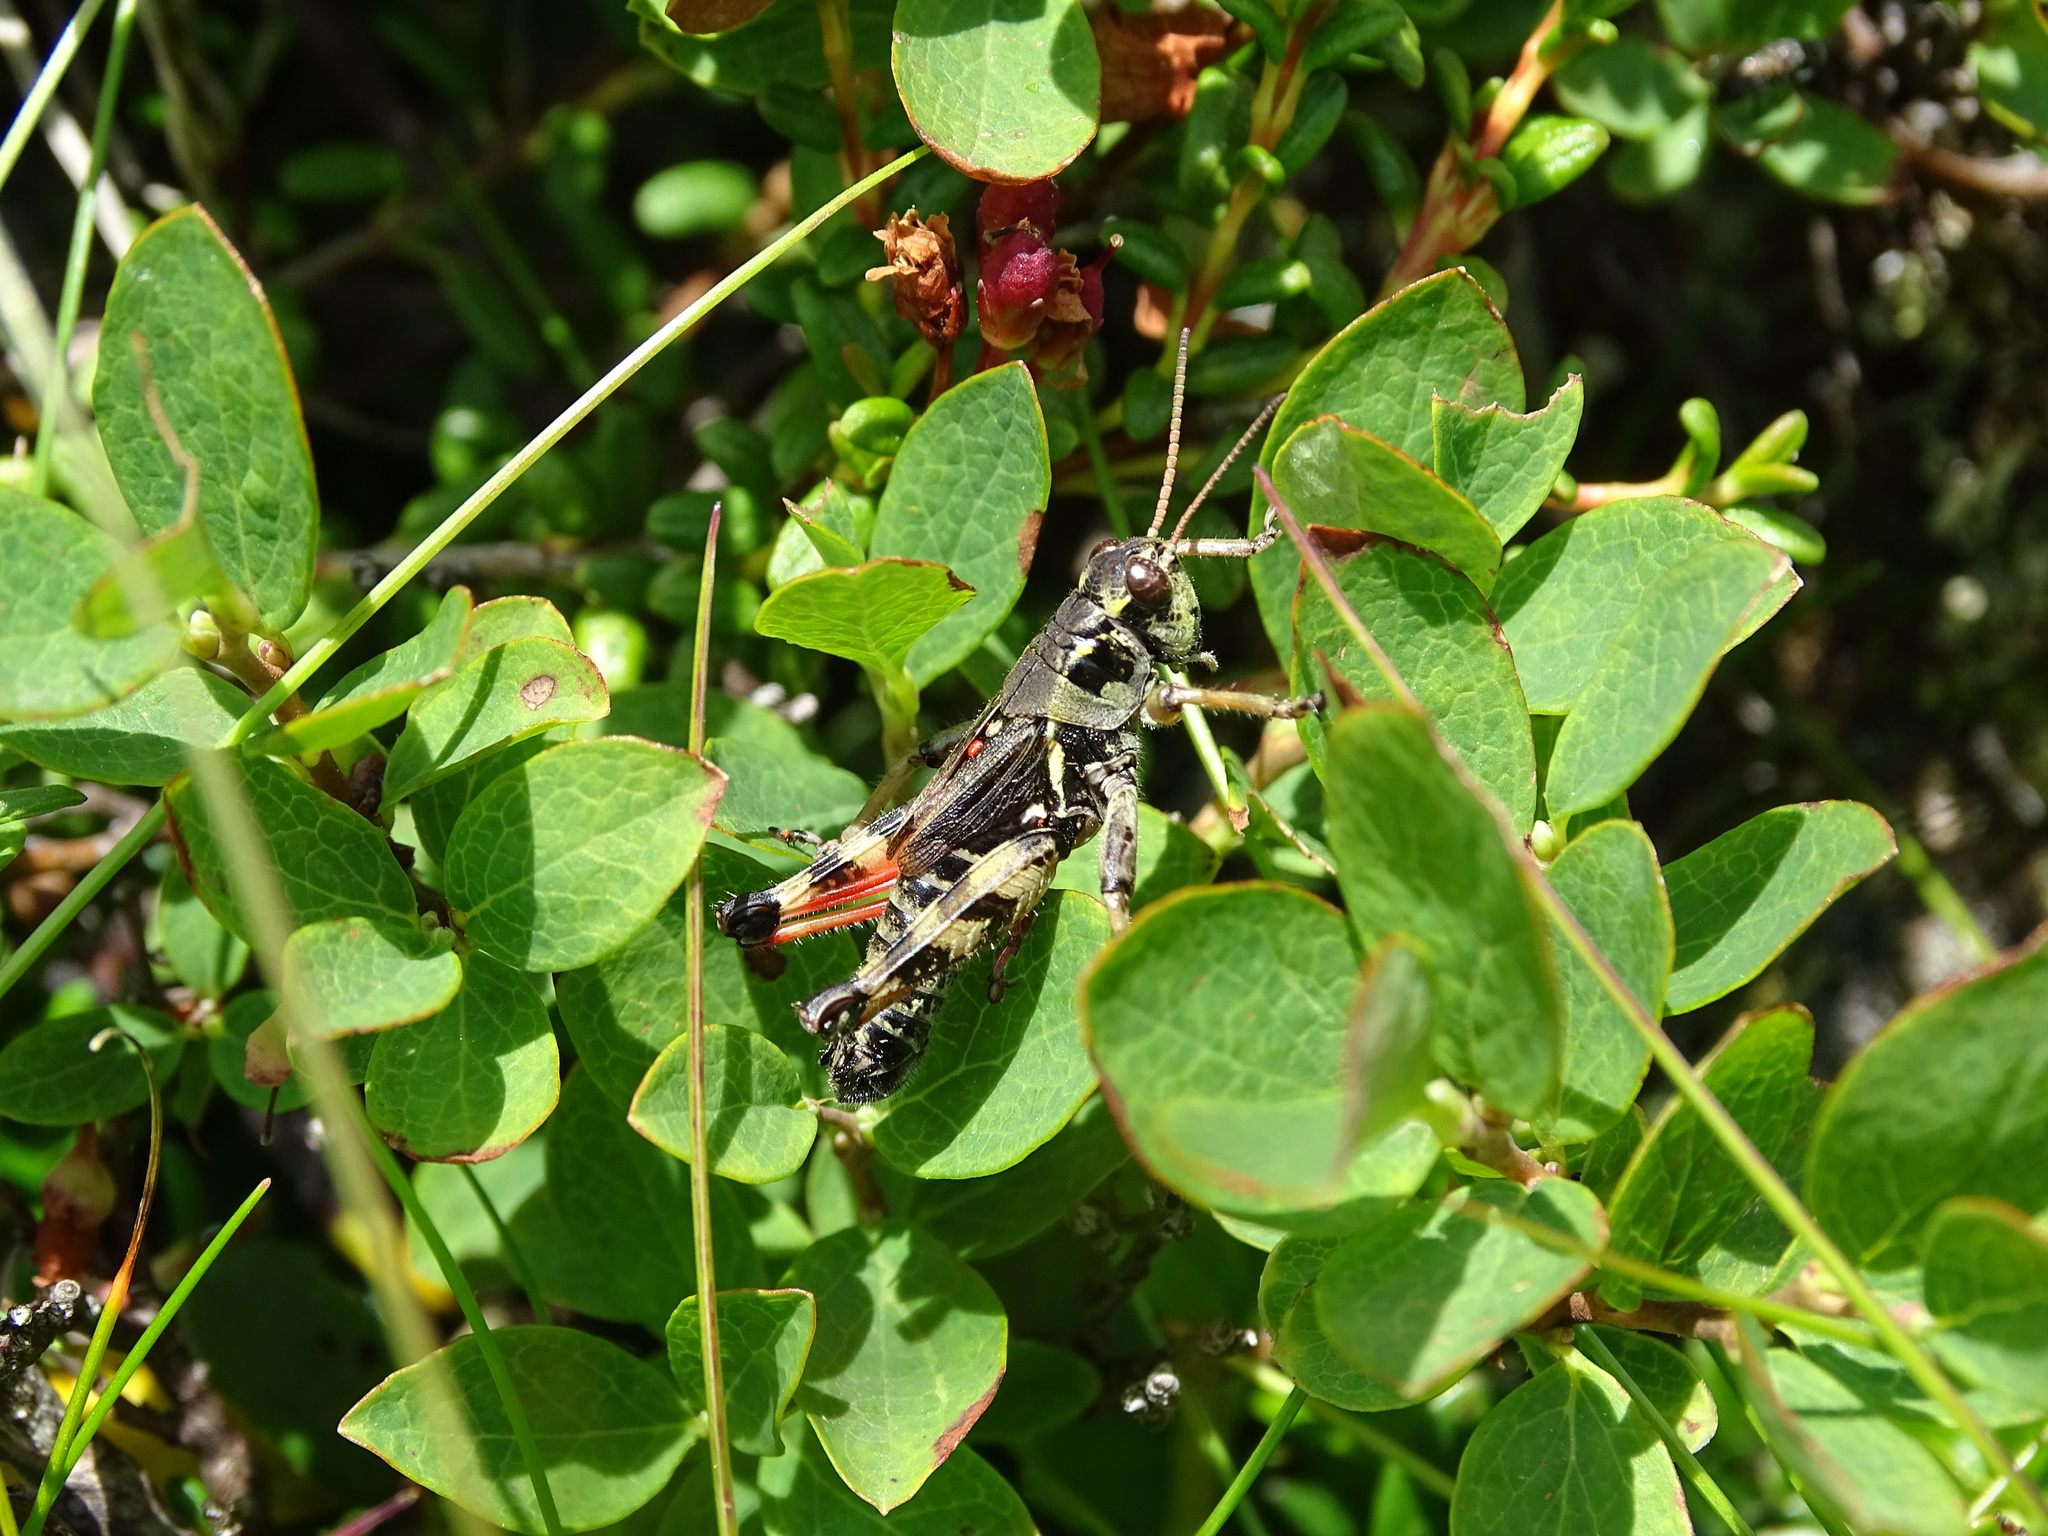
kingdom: Animalia
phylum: Arthropoda
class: Insecta
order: Orthoptera
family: Acrididae
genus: Bohemanella
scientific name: Bohemanella frigida
